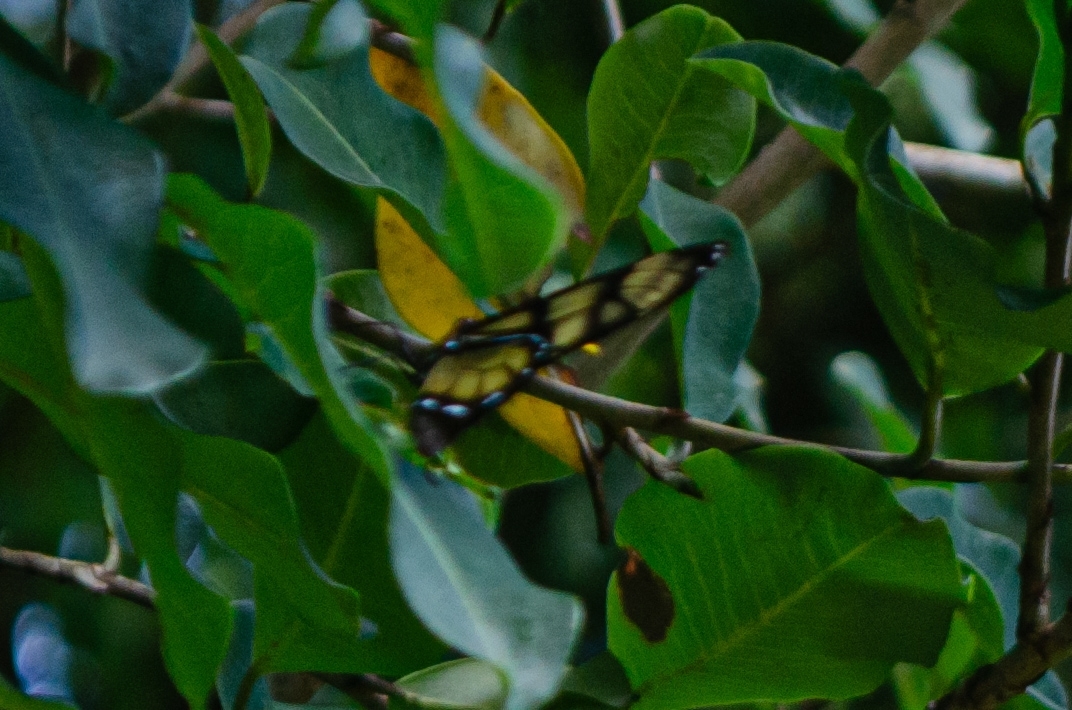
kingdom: Animalia
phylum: Arthropoda
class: Insecta
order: Lepidoptera
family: Nymphalidae
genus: Dircenna
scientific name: Dircenna dero
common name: Dero clearwing
